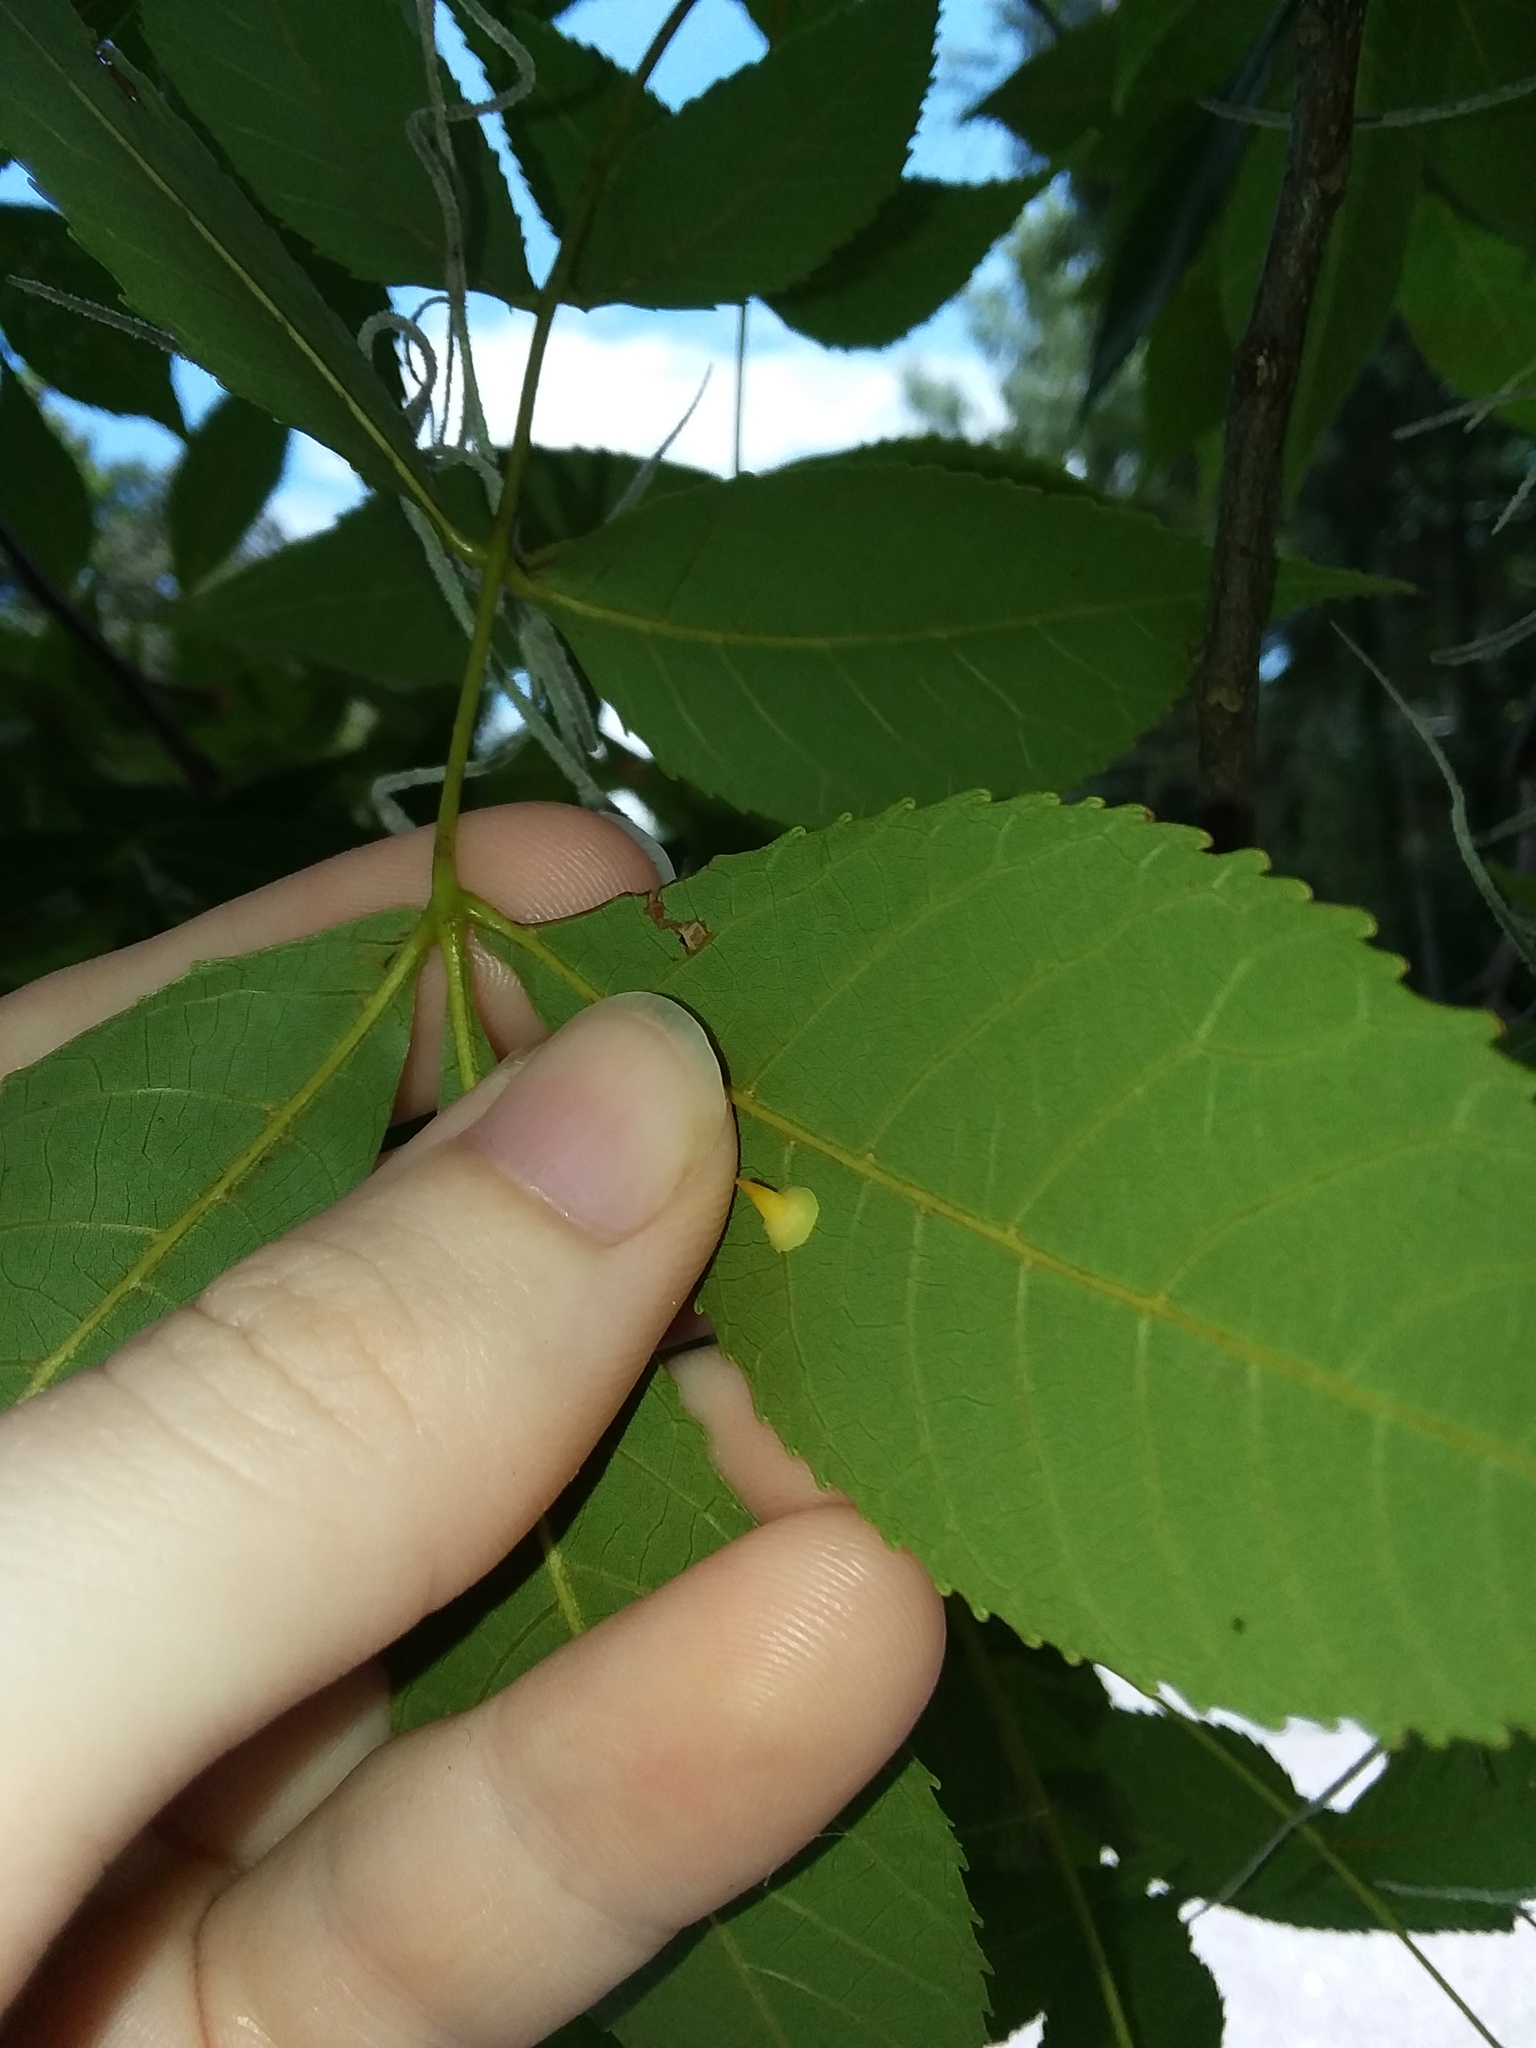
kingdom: Animalia
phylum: Arthropoda
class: Insecta
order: Diptera
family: Cecidomyiidae
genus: Caryomyia
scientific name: Caryomyia stellata
